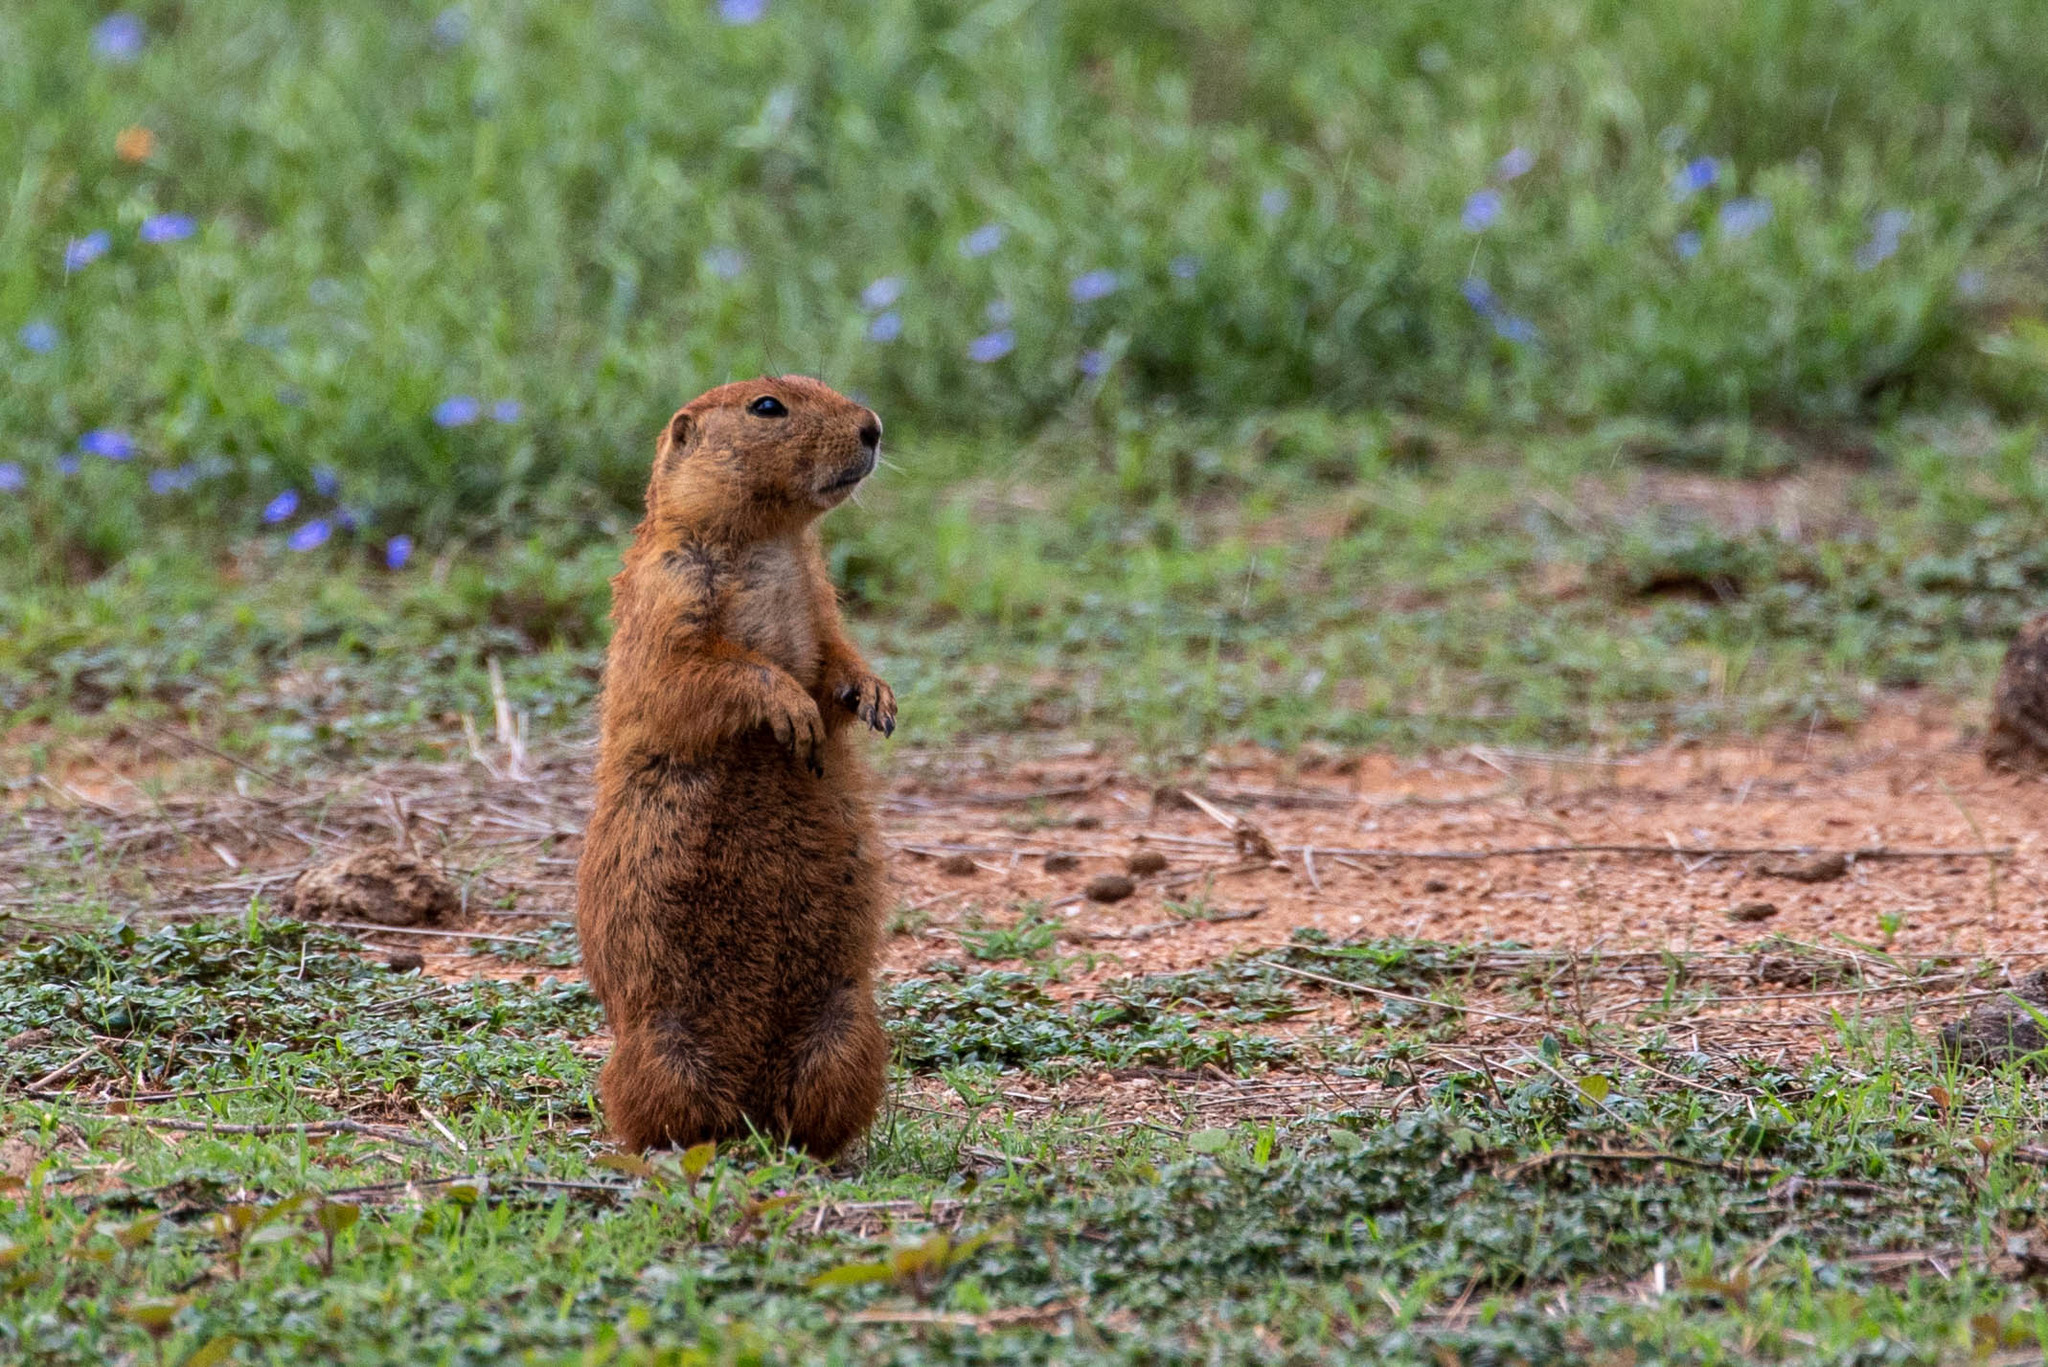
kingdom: Animalia
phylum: Chordata
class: Mammalia
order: Rodentia
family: Sciuridae
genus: Cynomys
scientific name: Cynomys ludovicianus
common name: Black-tailed prairie dog
